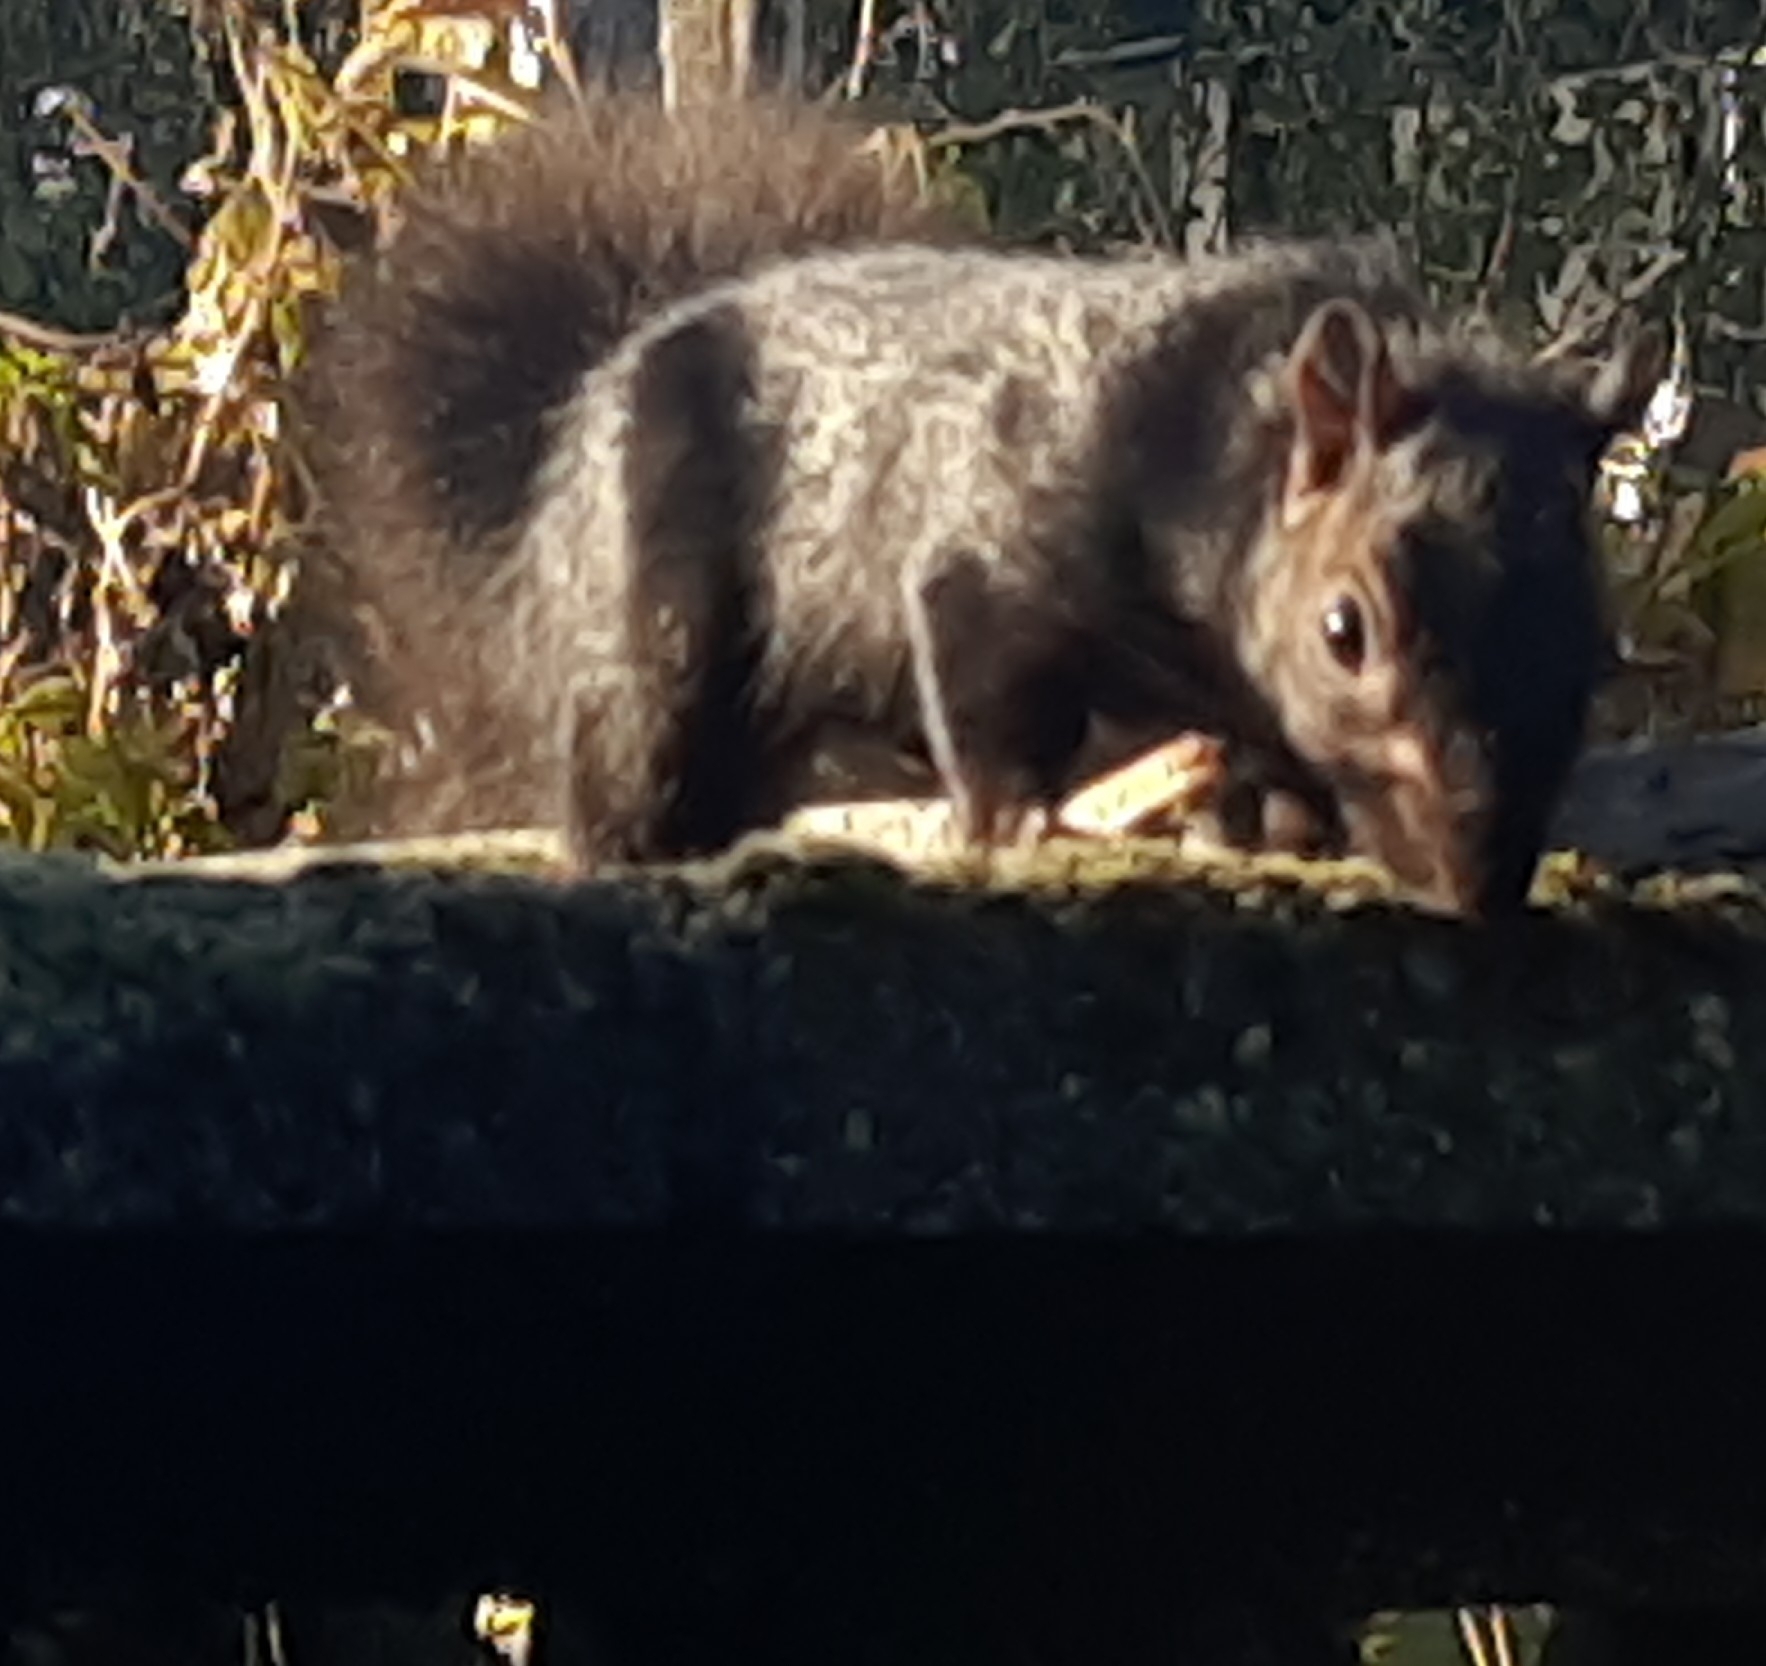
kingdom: Animalia
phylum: Chordata
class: Mammalia
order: Rodentia
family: Sciuridae
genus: Sciurus
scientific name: Sciurus carolinensis
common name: Eastern gray squirrel
